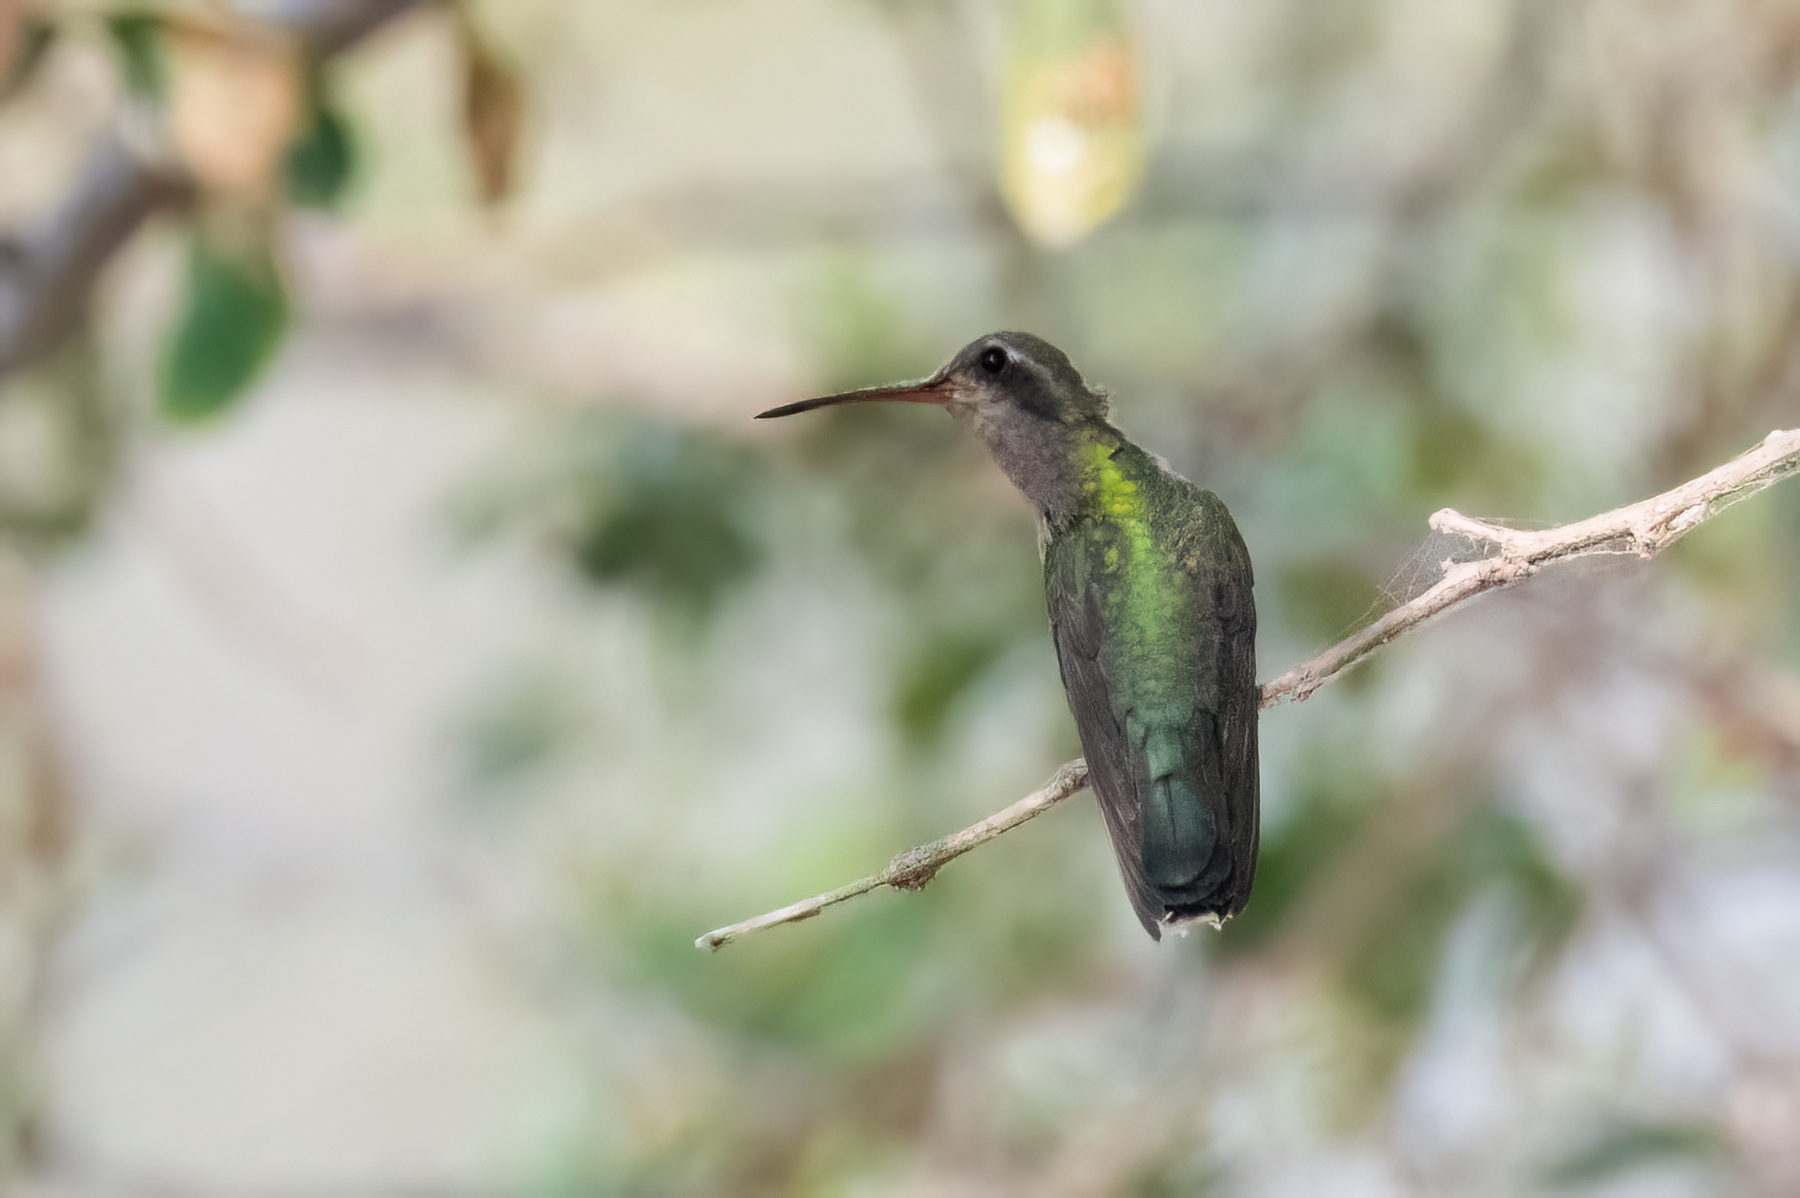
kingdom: Animalia
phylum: Chordata
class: Aves
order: Apodiformes
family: Trochilidae
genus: Cynanthus
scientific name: Cynanthus latirostris
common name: Broad-billed hummingbird
